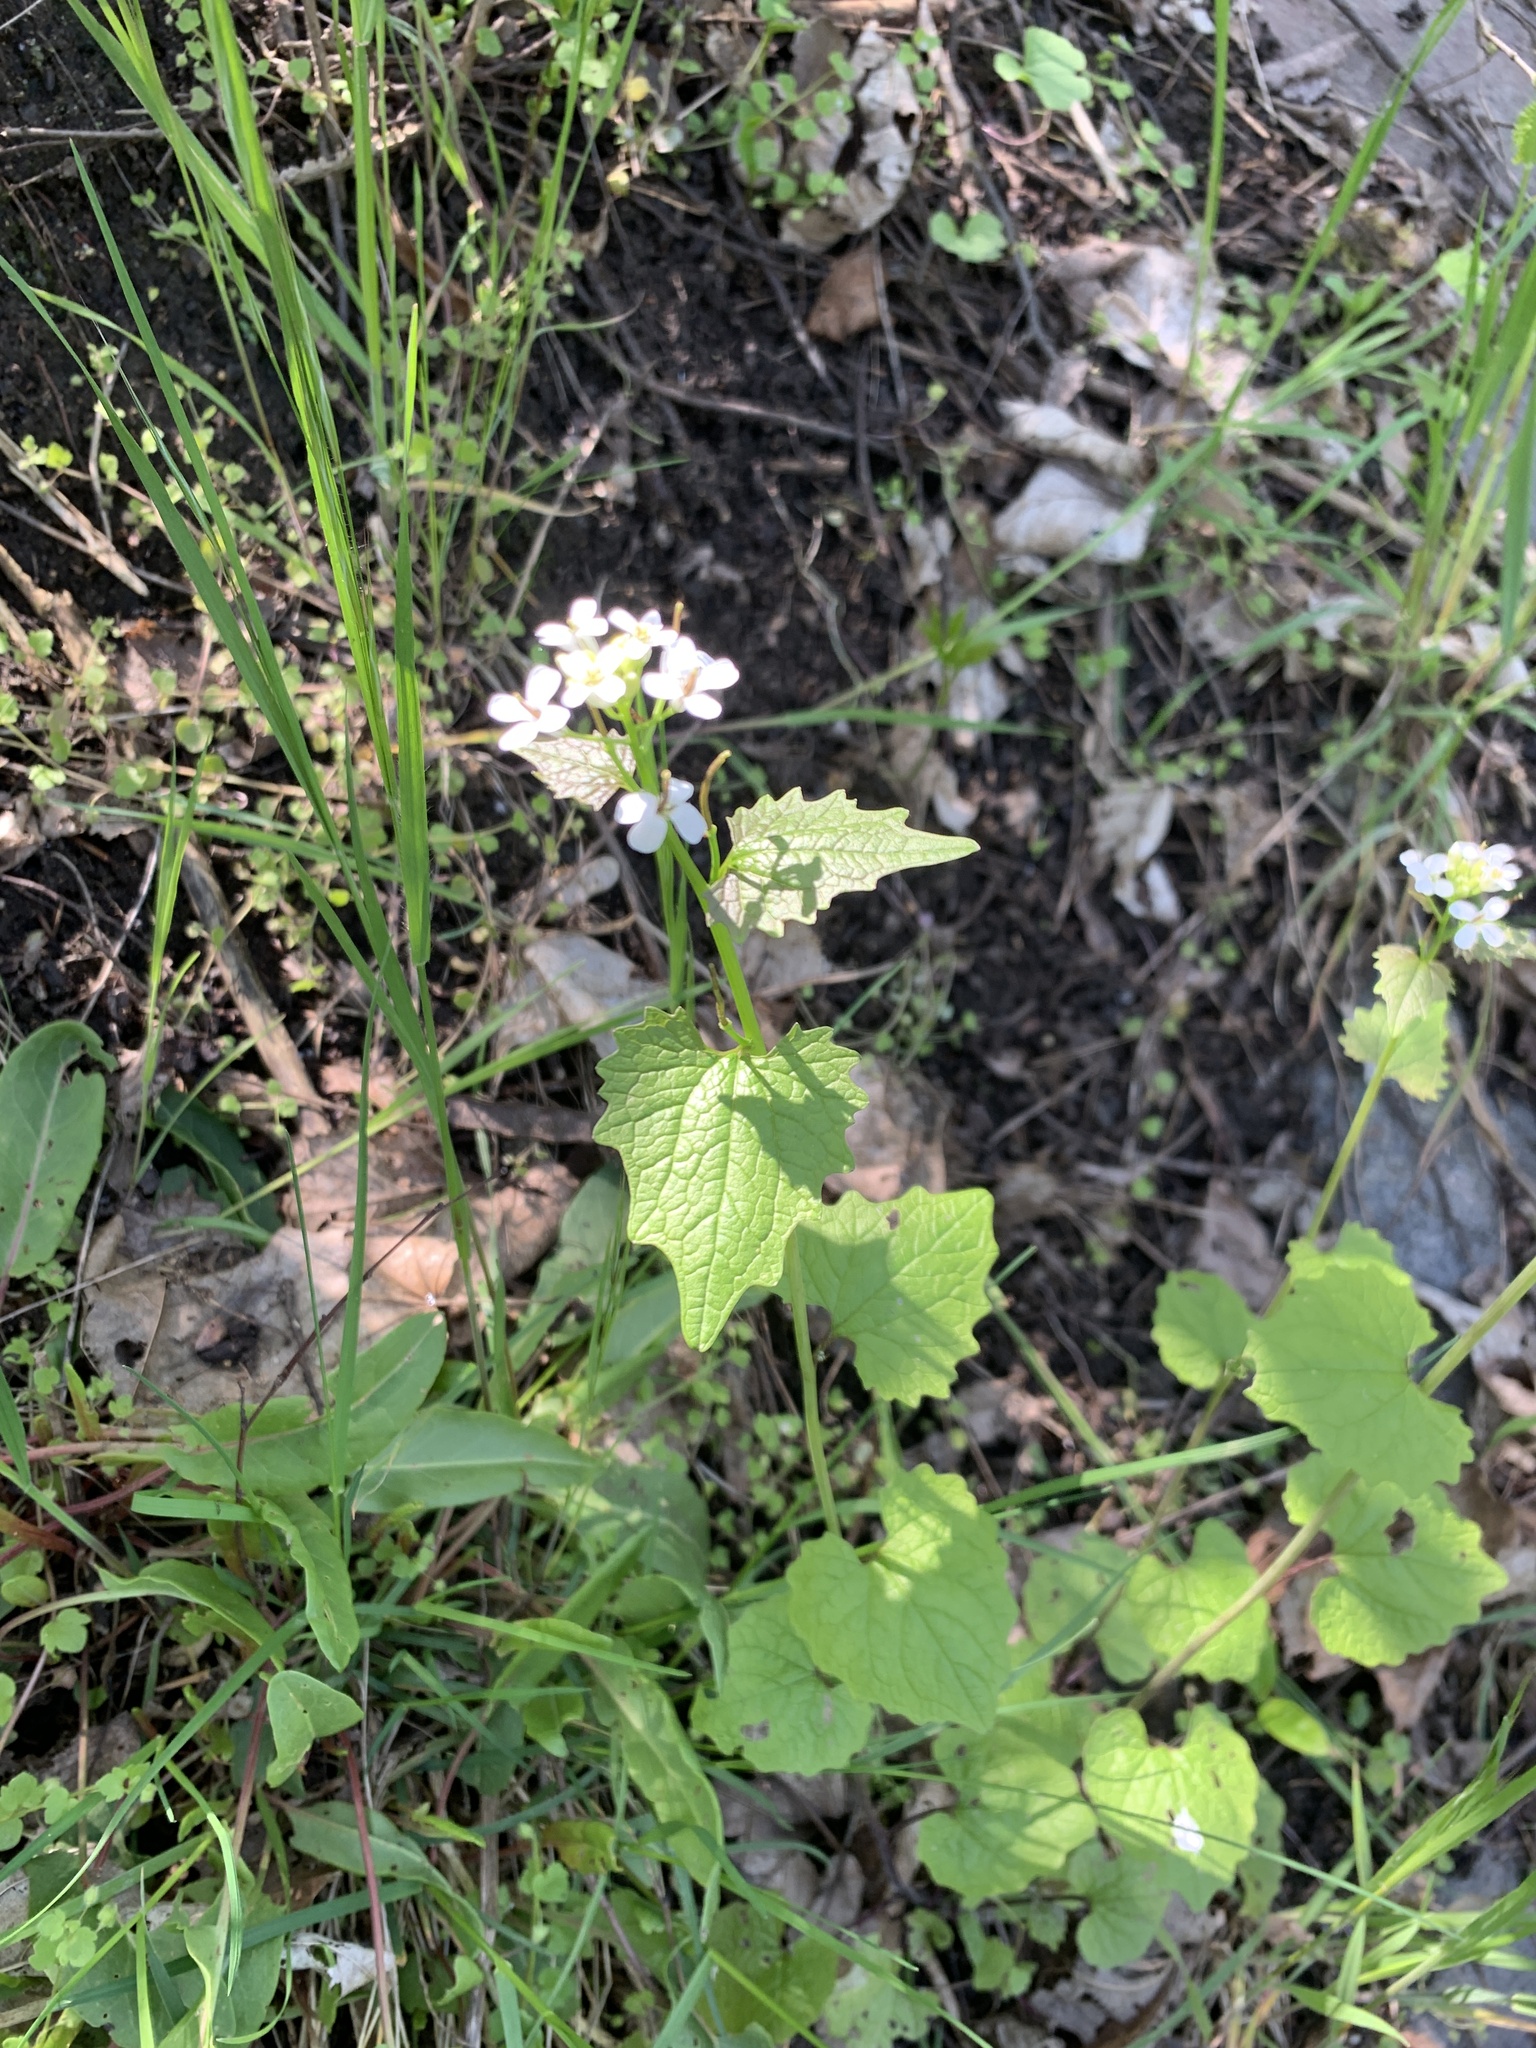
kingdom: Plantae
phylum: Tracheophyta
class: Magnoliopsida
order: Brassicales
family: Brassicaceae
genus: Alliaria
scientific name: Alliaria petiolata
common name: Garlic mustard
